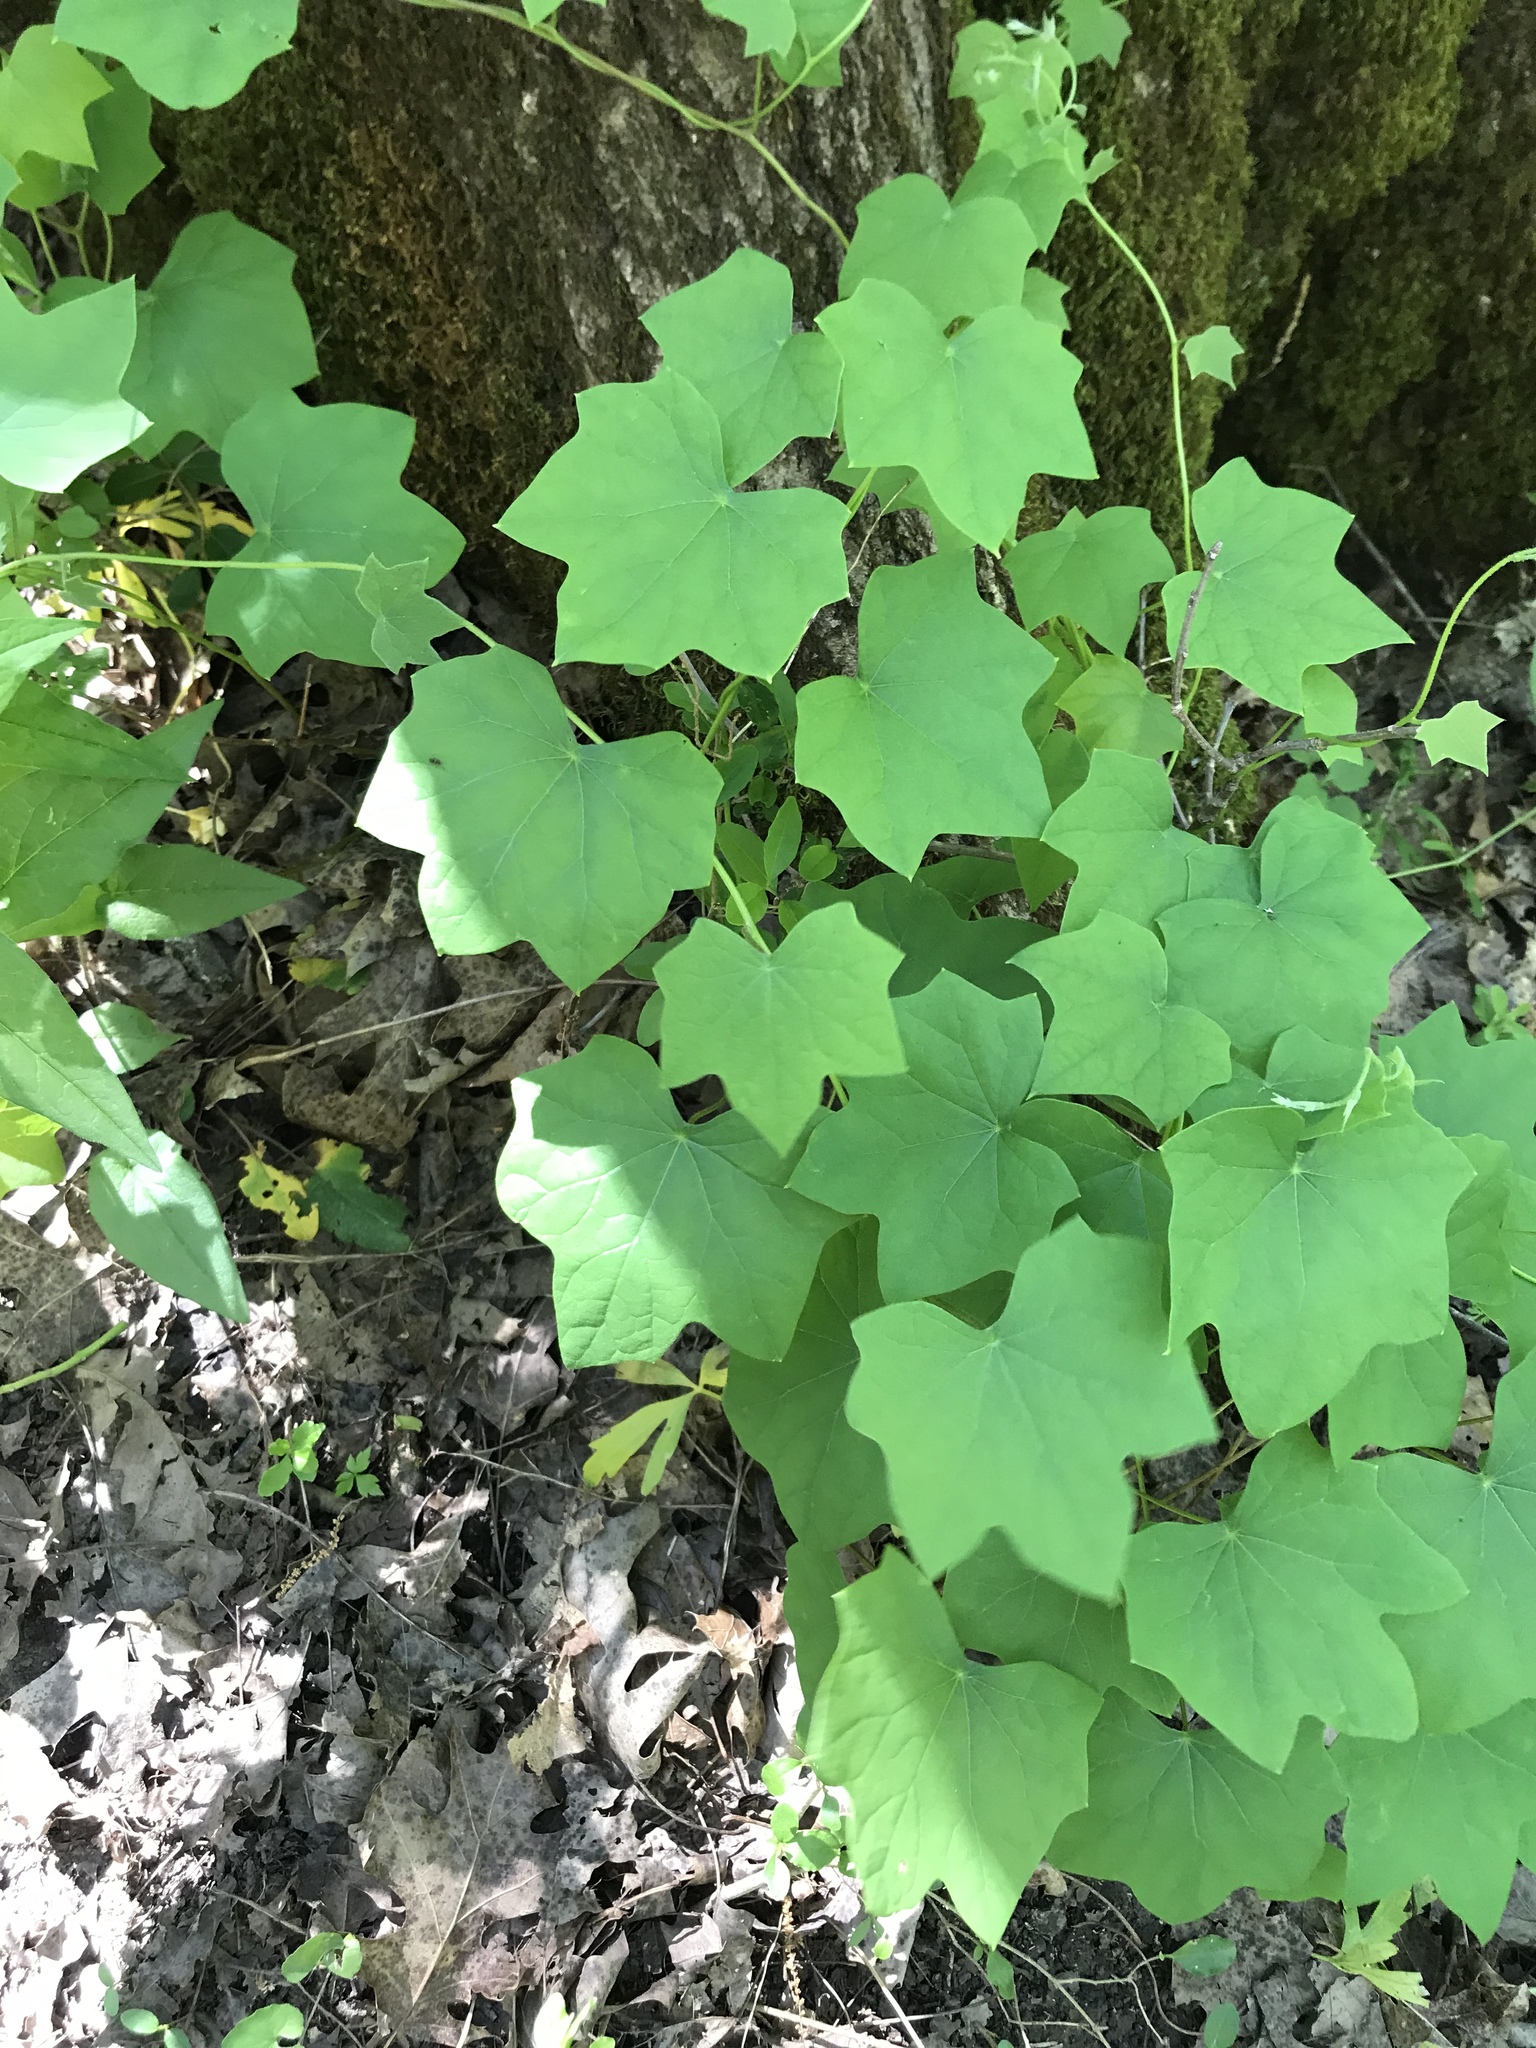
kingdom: Plantae
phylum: Tracheophyta
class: Magnoliopsida
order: Ranunculales
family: Menispermaceae
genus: Menispermum
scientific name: Menispermum canadense
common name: Moonseed
